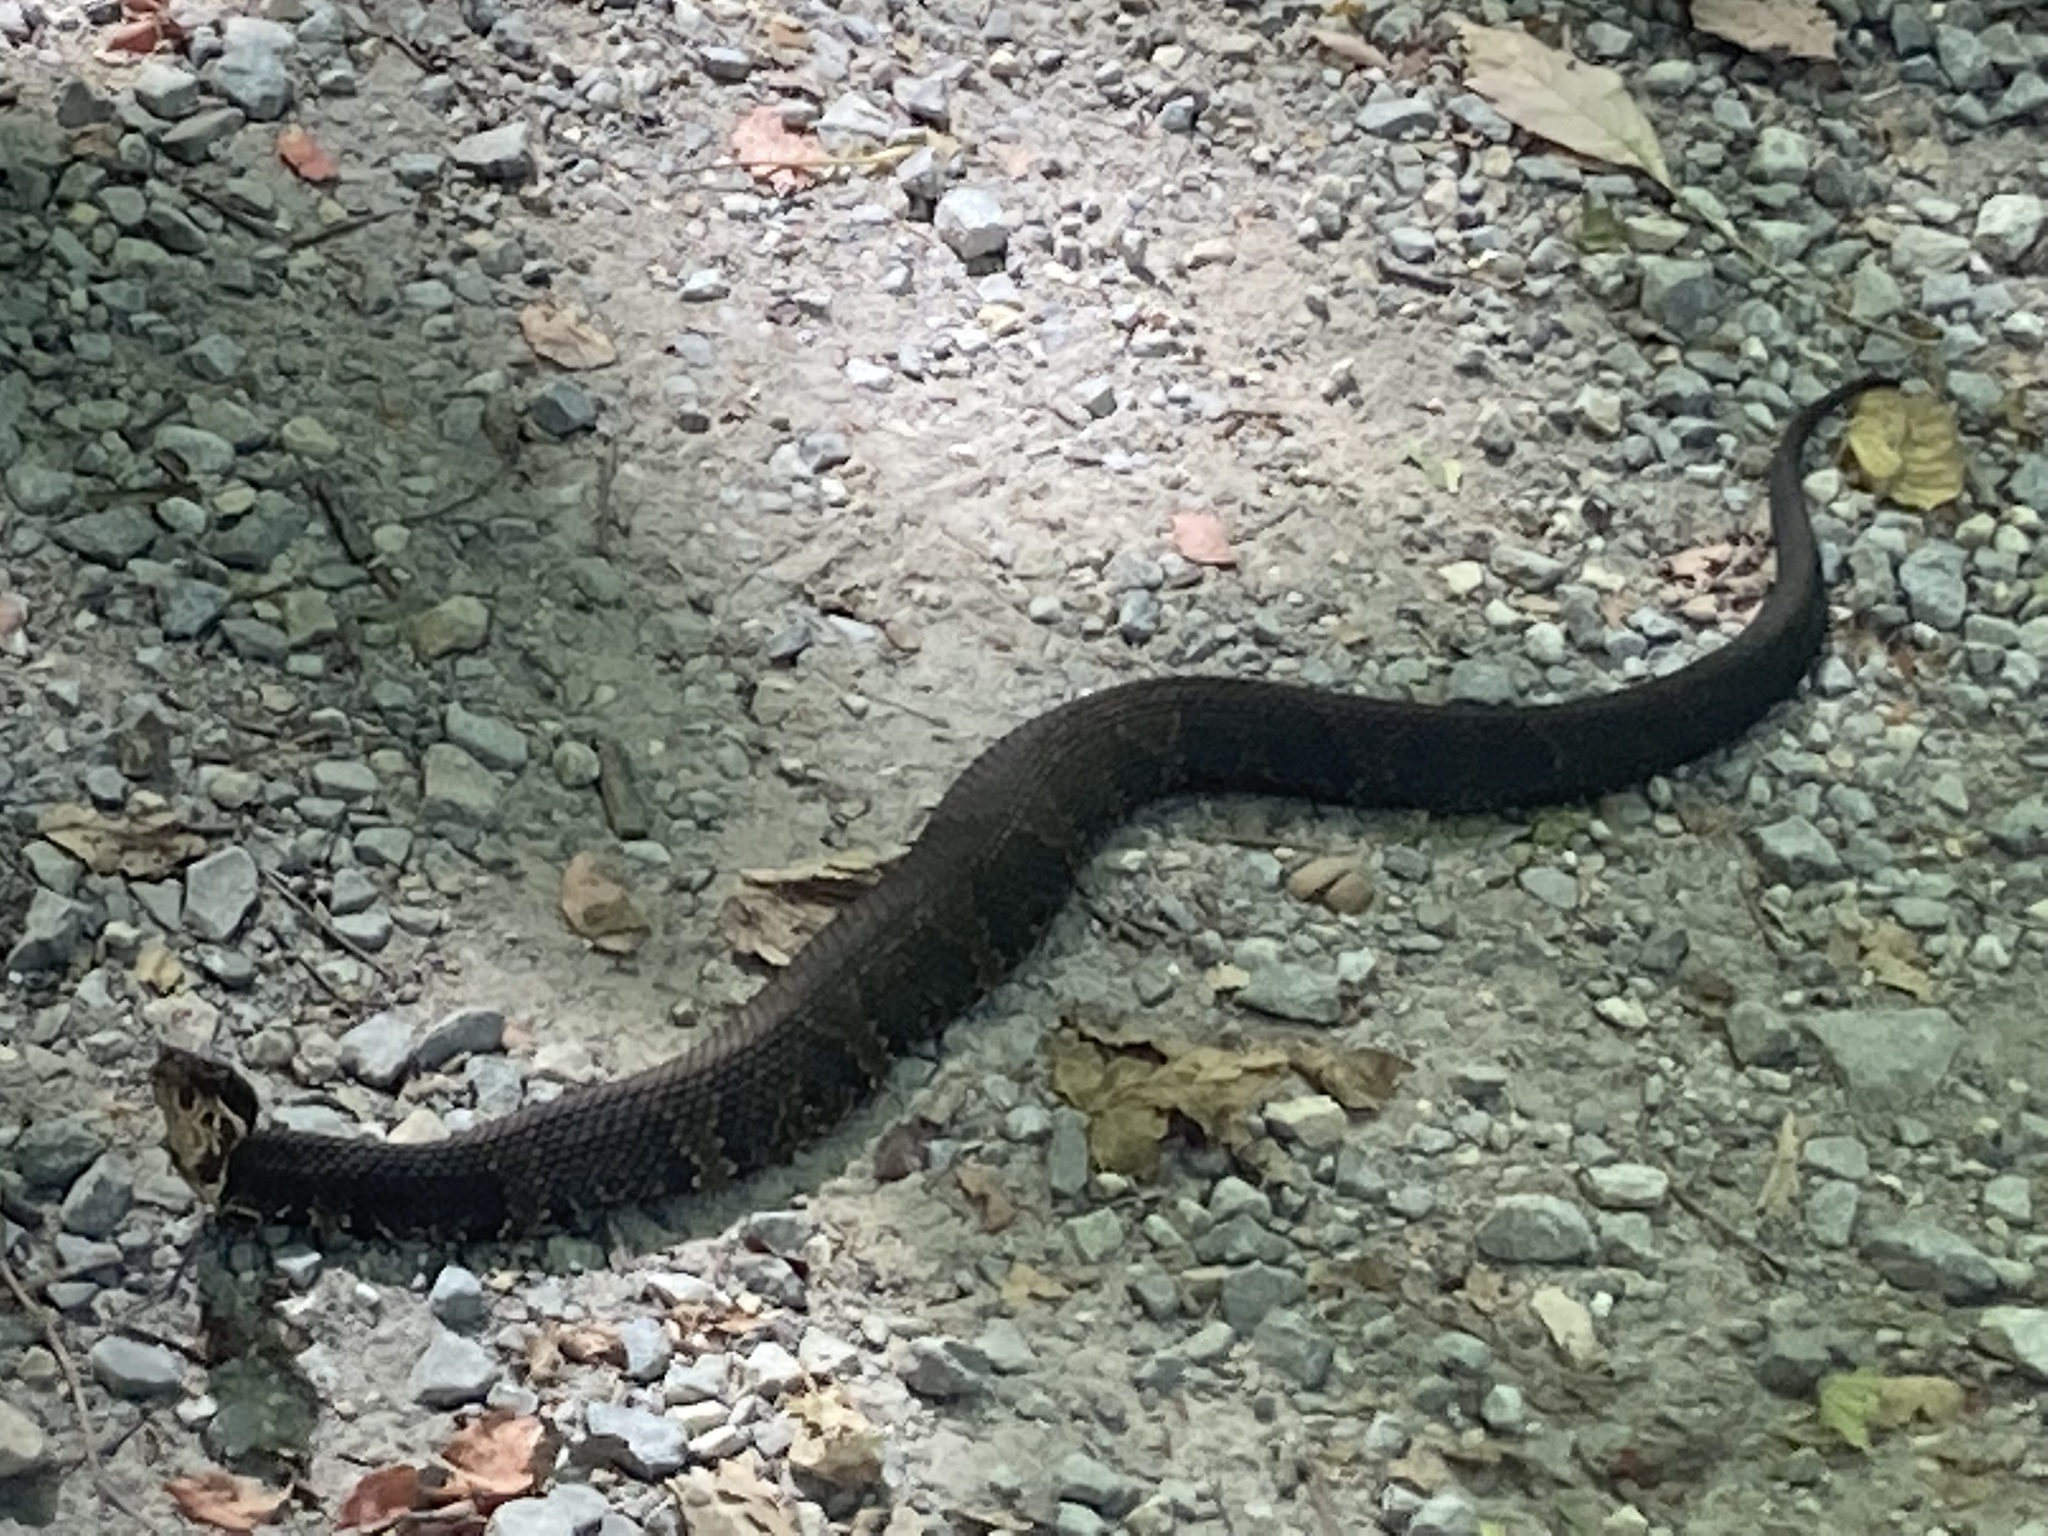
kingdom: Animalia
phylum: Chordata
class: Squamata
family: Viperidae
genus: Agkistrodon
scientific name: Agkistrodon piscivorus
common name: Cottonmouth
